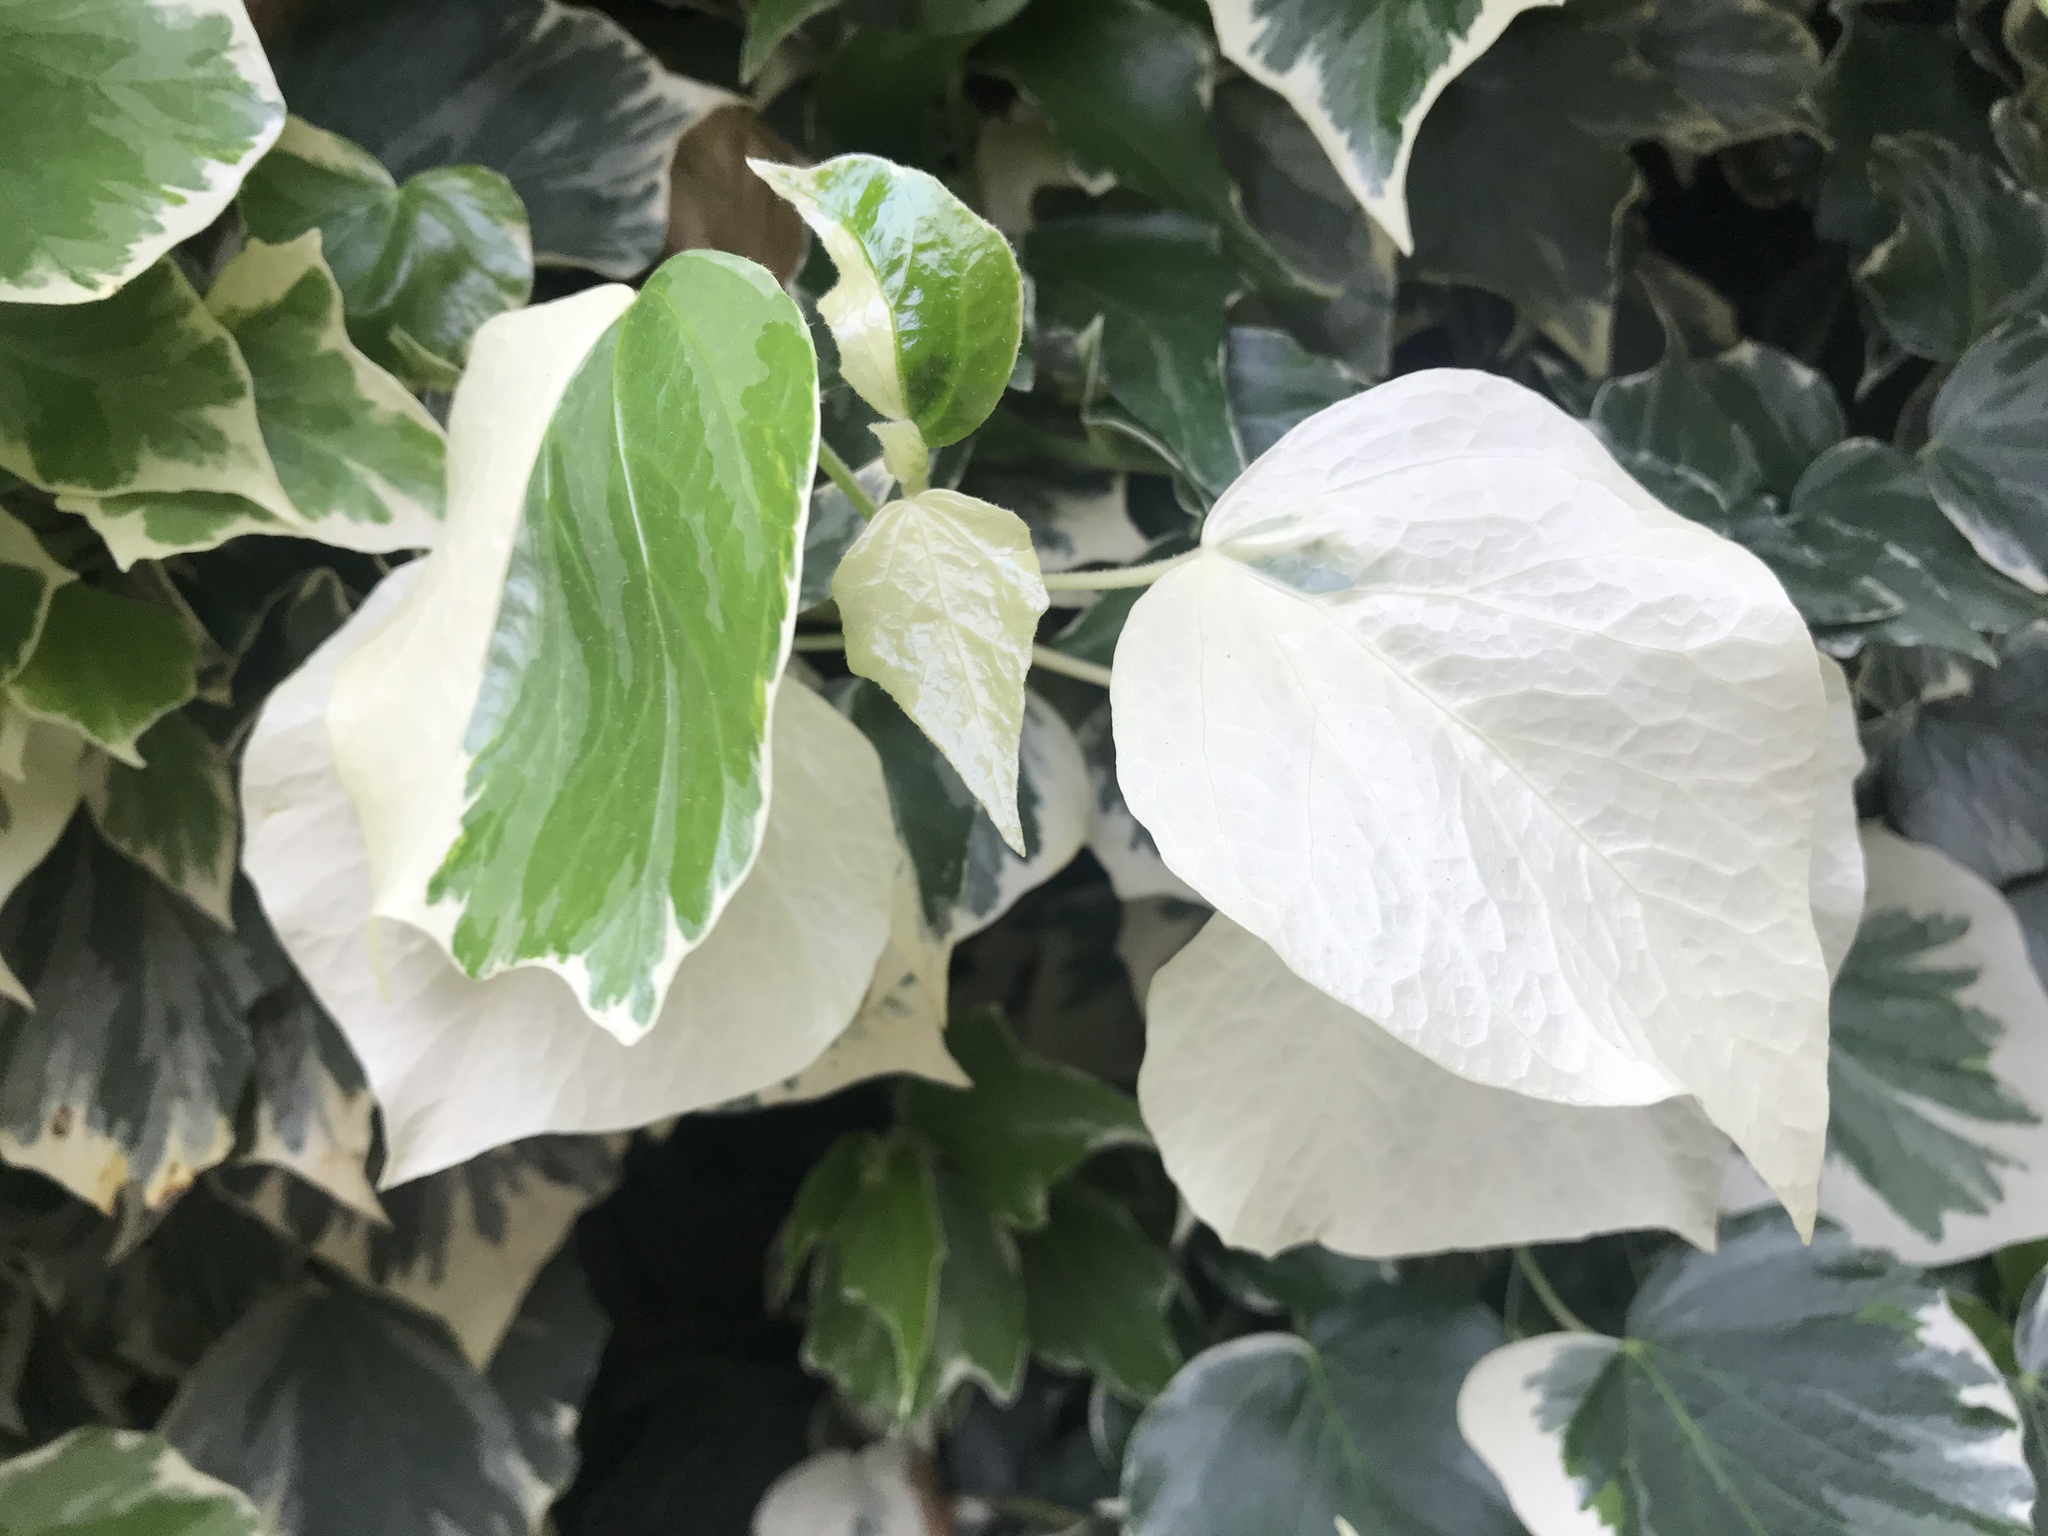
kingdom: Plantae
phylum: Tracheophyta
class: Magnoliopsida
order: Apiales
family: Araliaceae
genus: Hedera
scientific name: Hedera canariensis
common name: Madeira ivy
